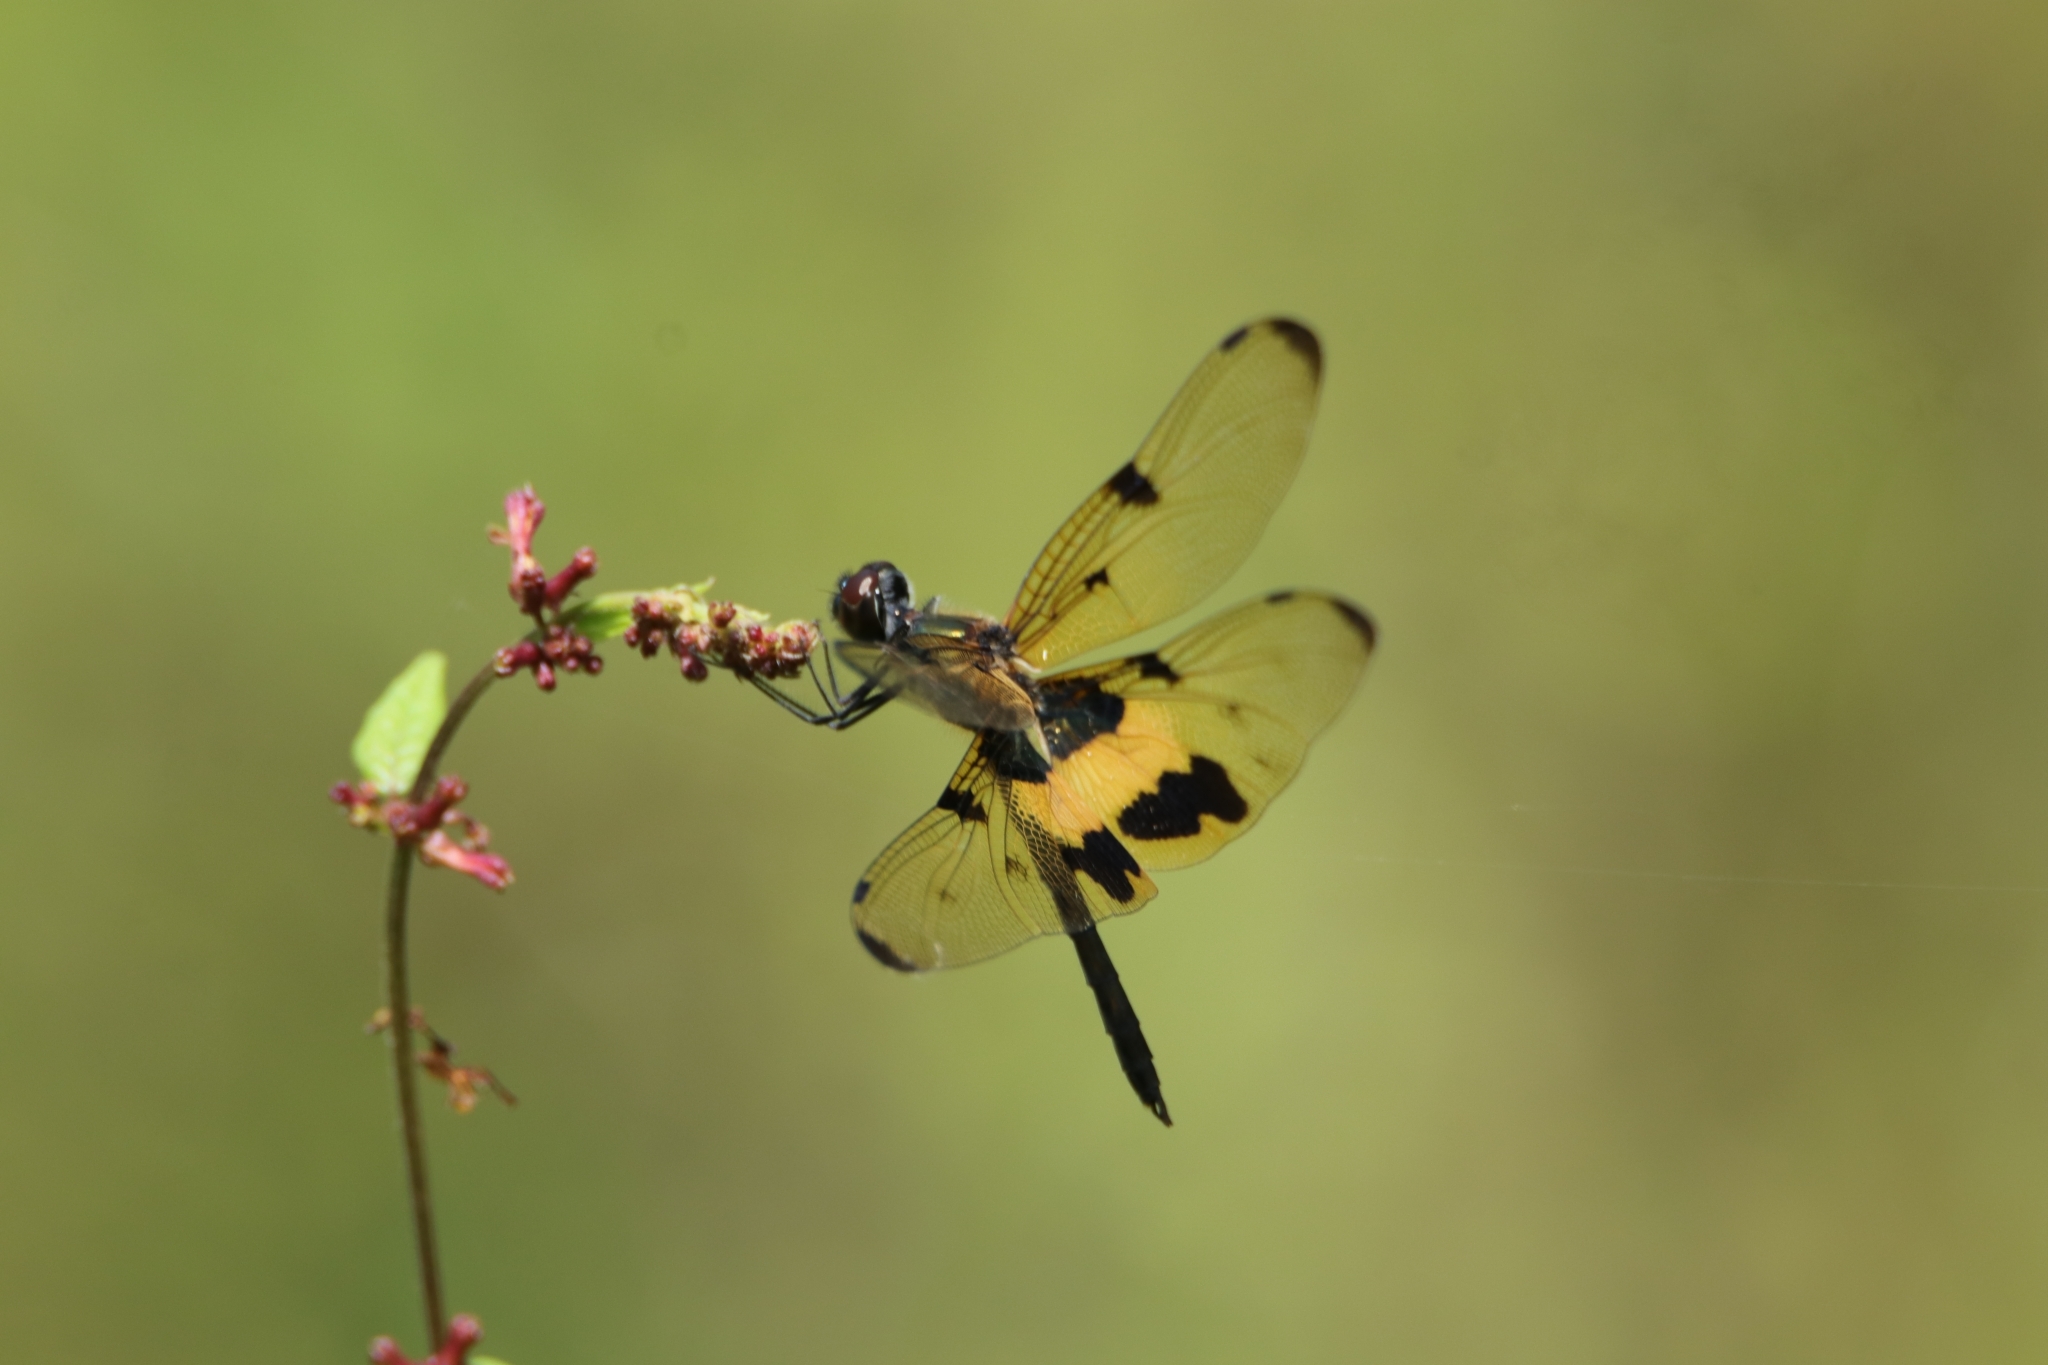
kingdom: Animalia
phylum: Arthropoda
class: Insecta
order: Odonata
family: Libellulidae
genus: Rhyothemis
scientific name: Rhyothemis variegata
